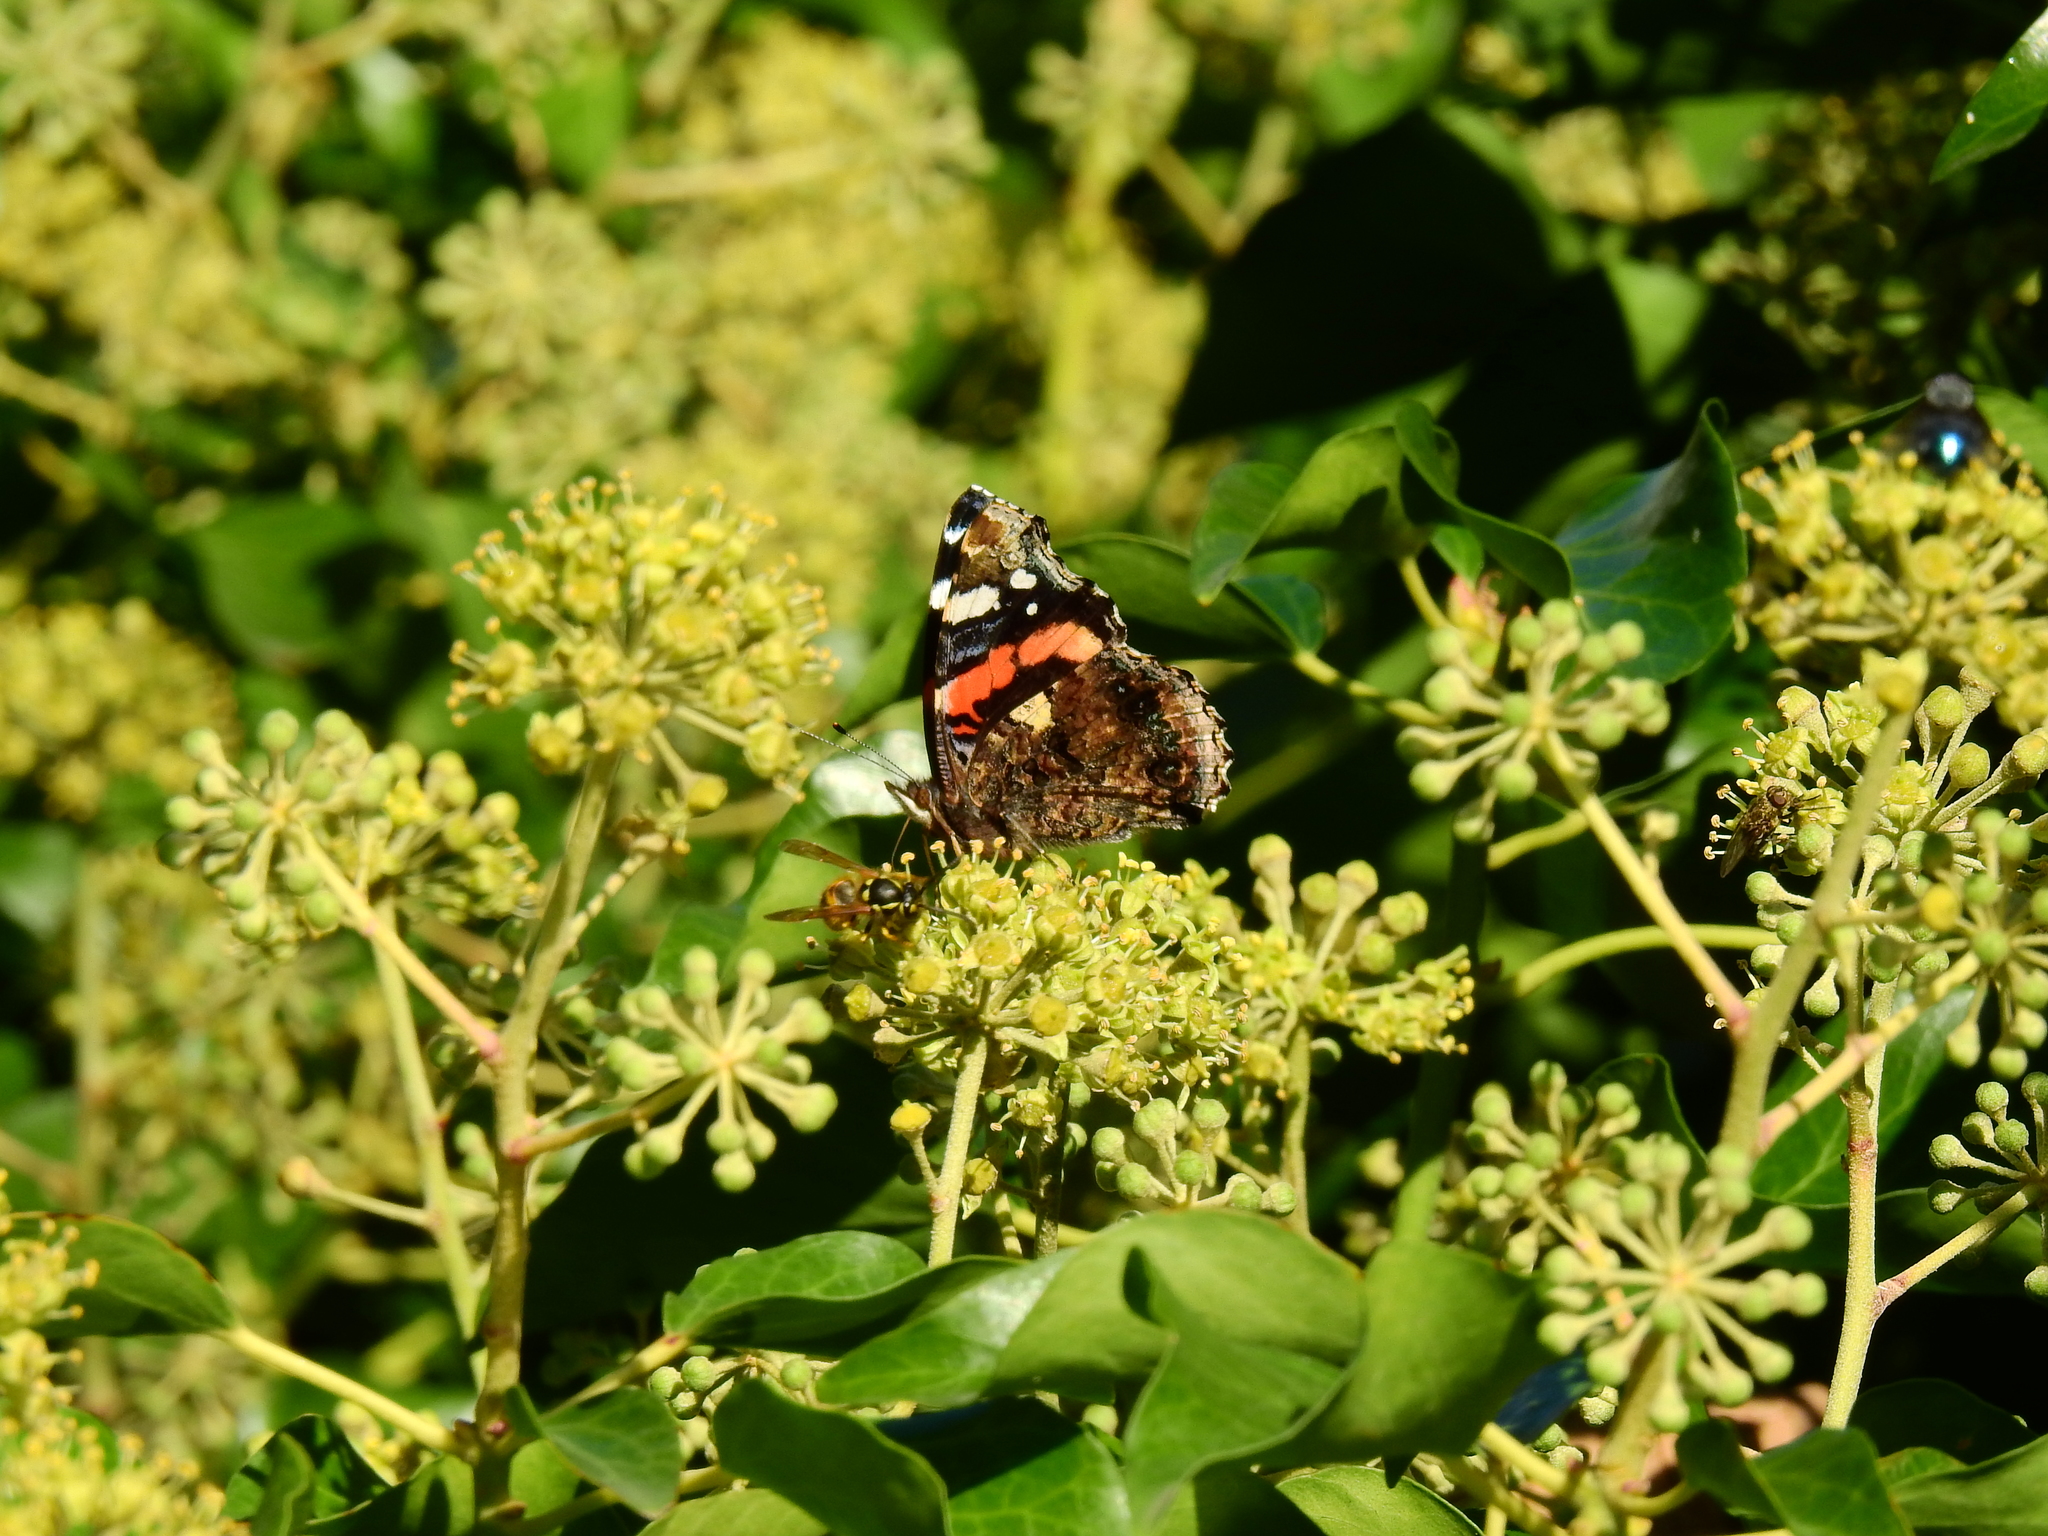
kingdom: Animalia
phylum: Arthropoda
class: Insecta
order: Lepidoptera
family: Nymphalidae
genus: Vanessa
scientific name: Vanessa atalanta
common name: Red admiral
